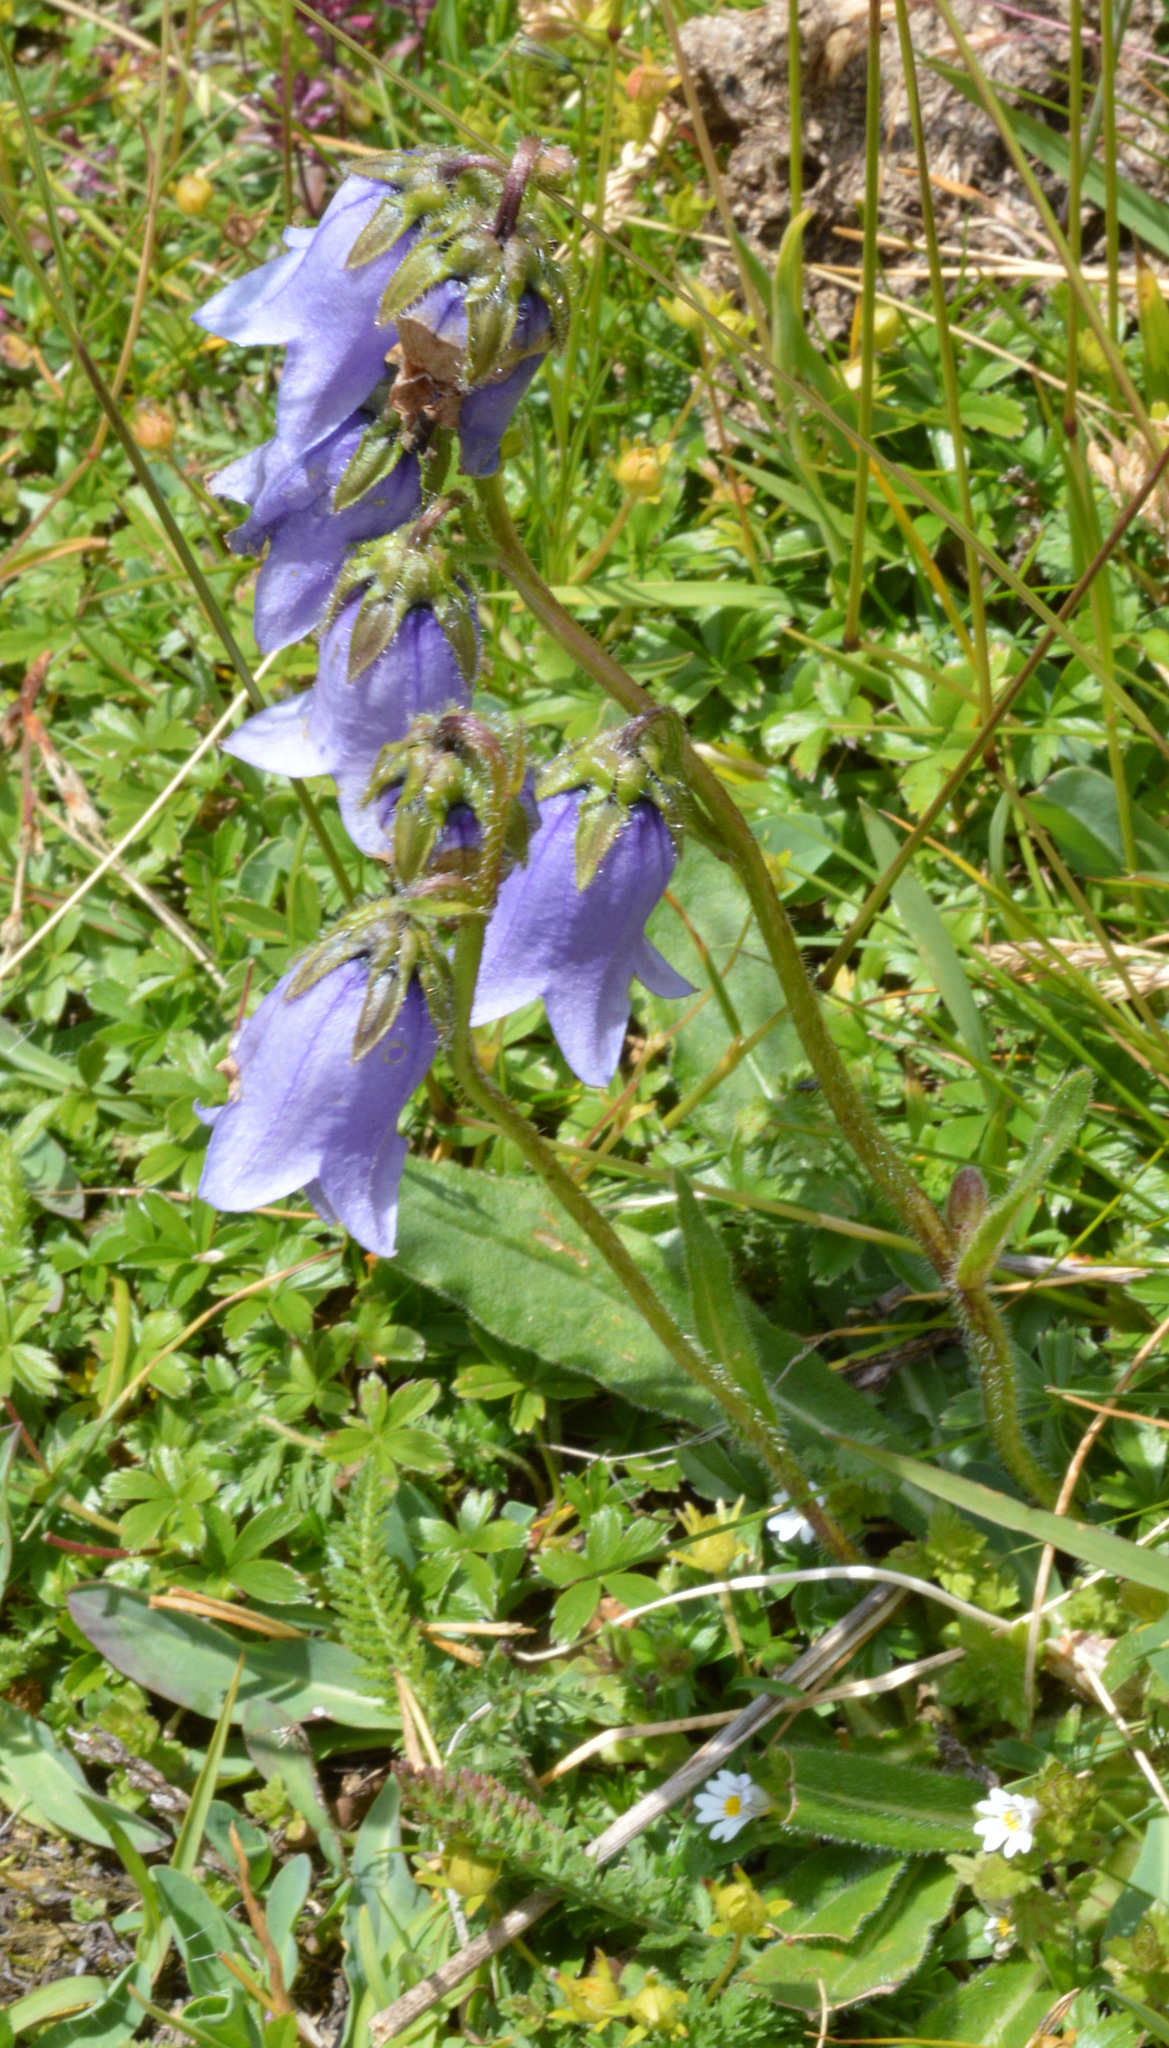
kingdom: Plantae
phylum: Tracheophyta
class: Magnoliopsida
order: Asterales
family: Campanulaceae
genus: Campanula
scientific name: Campanula barbata
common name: Bearded bellflower
